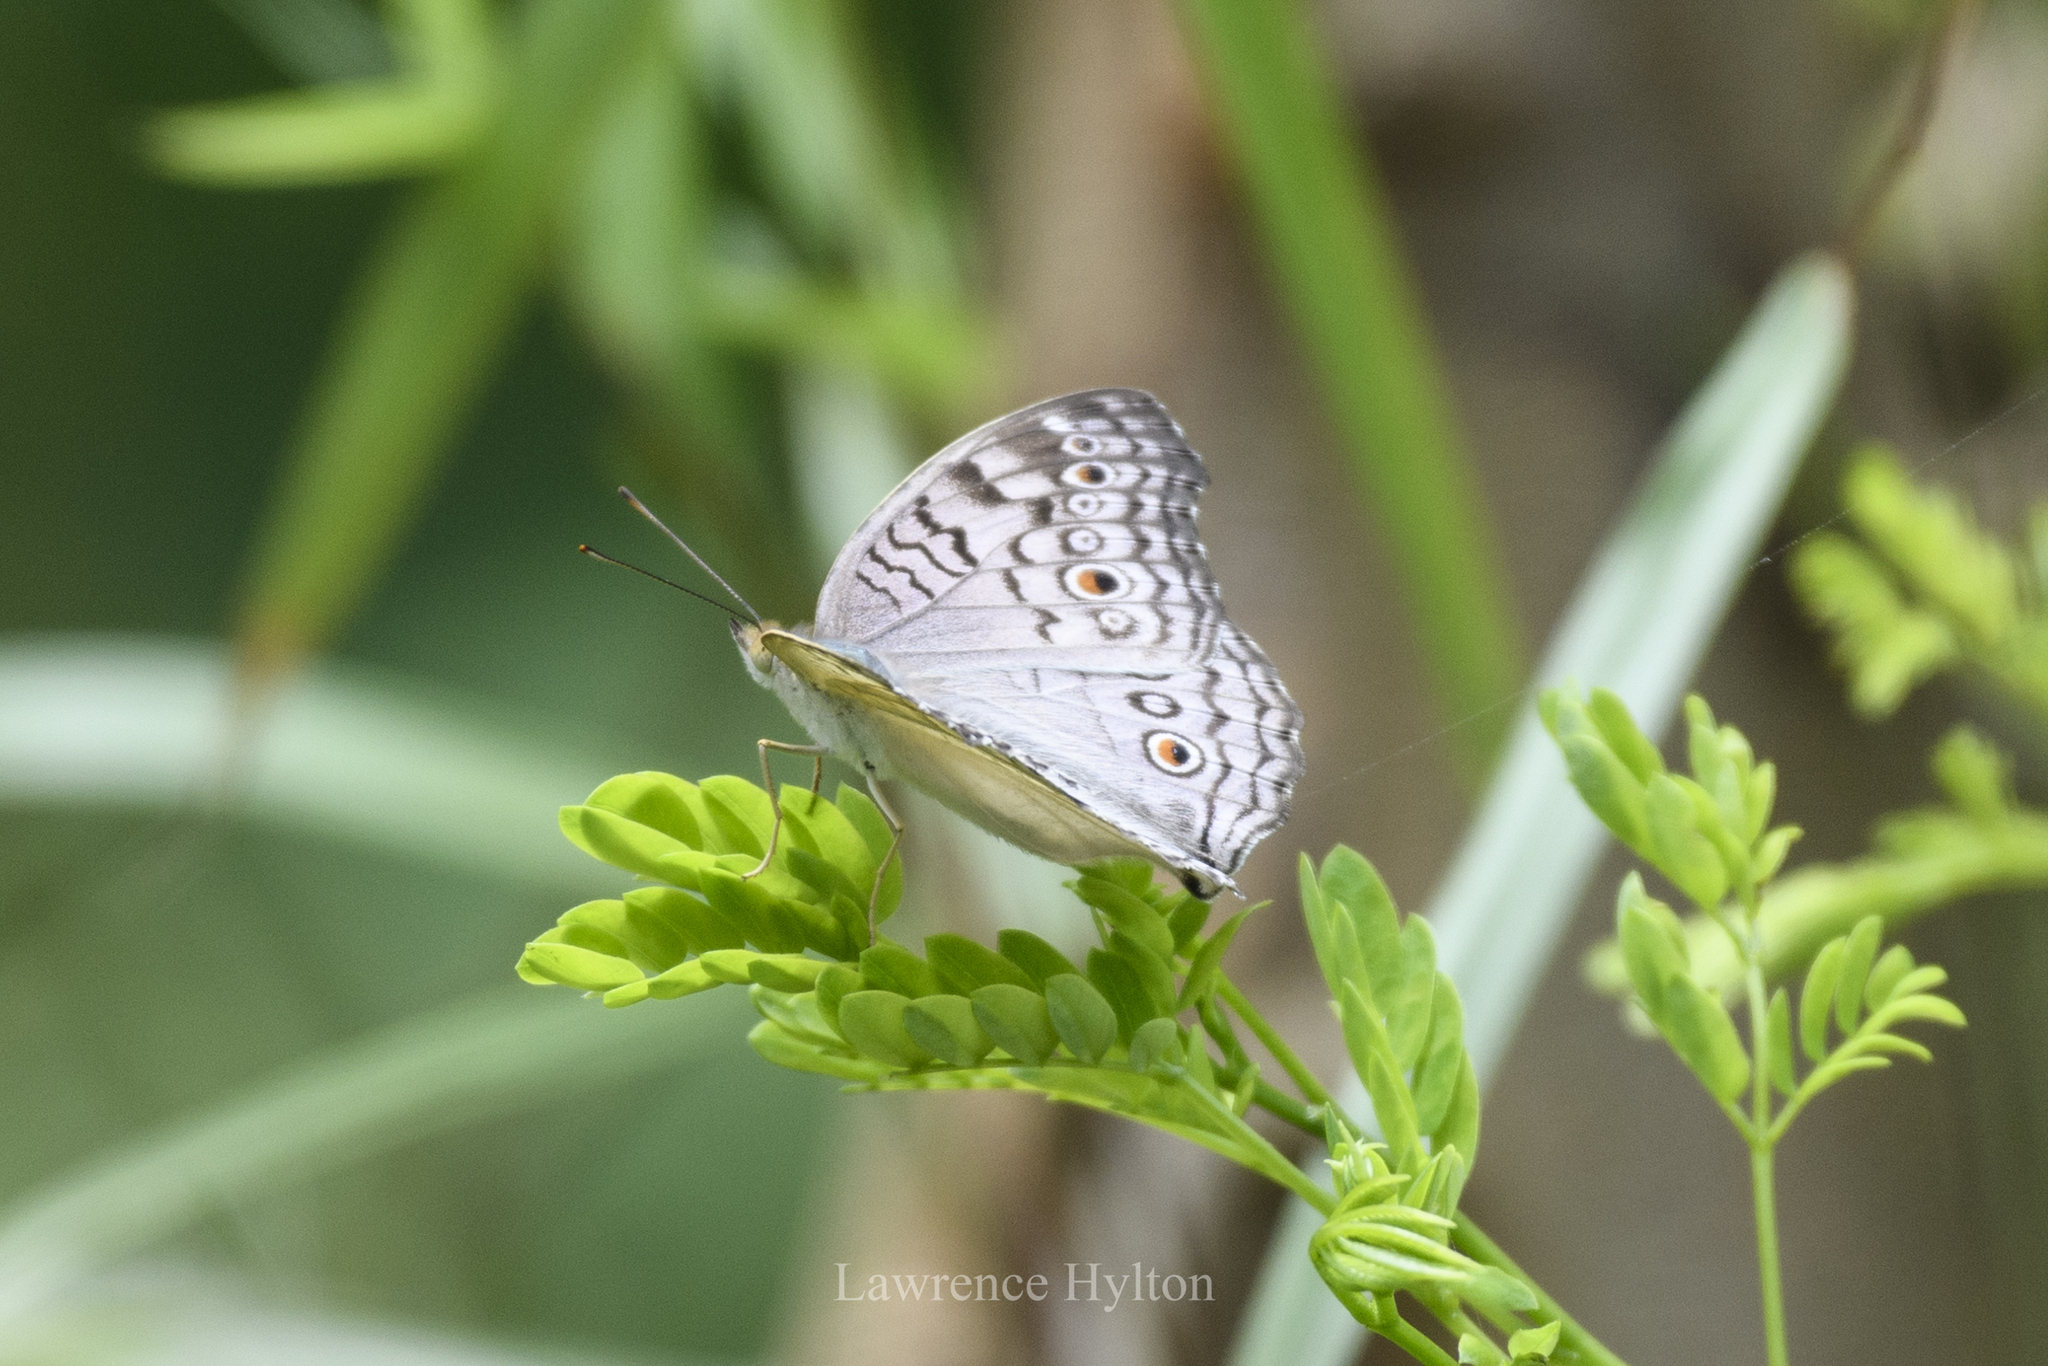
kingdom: Animalia
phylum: Arthropoda
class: Insecta
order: Lepidoptera
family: Nymphalidae
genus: Junonia
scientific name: Junonia atlites
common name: Grey pansy
